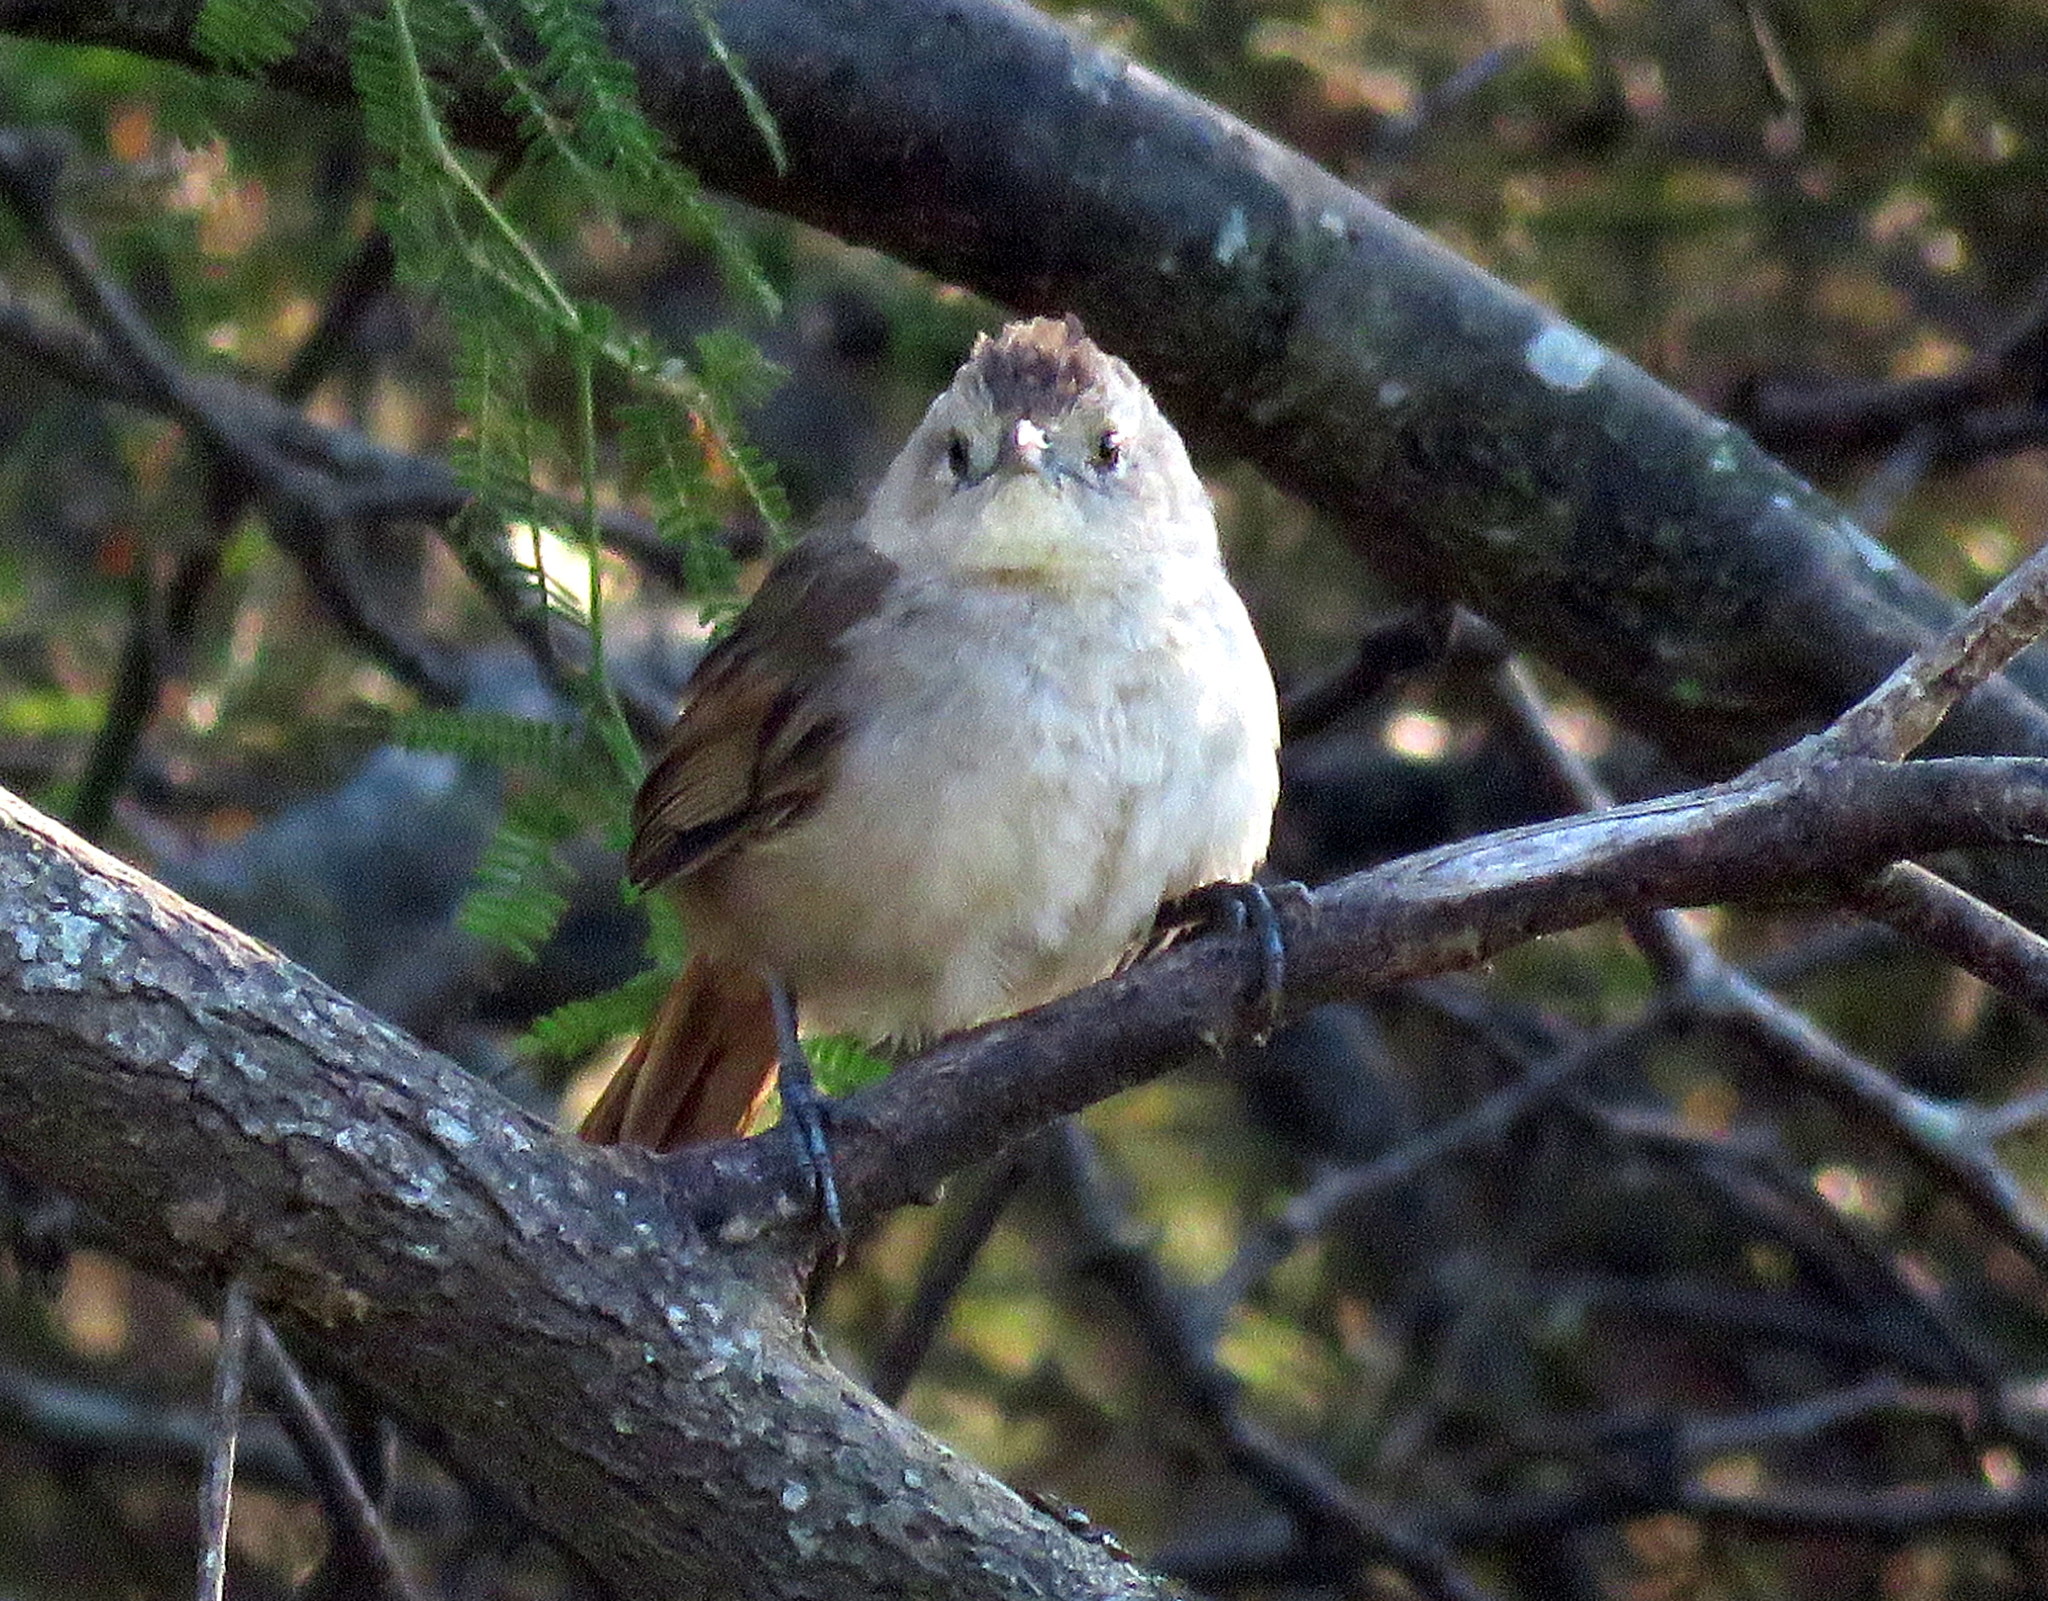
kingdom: Animalia
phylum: Chordata
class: Aves
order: Passeriformes
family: Furnariidae
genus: Asthenes
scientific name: Asthenes baeri
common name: Short-billed canastero
